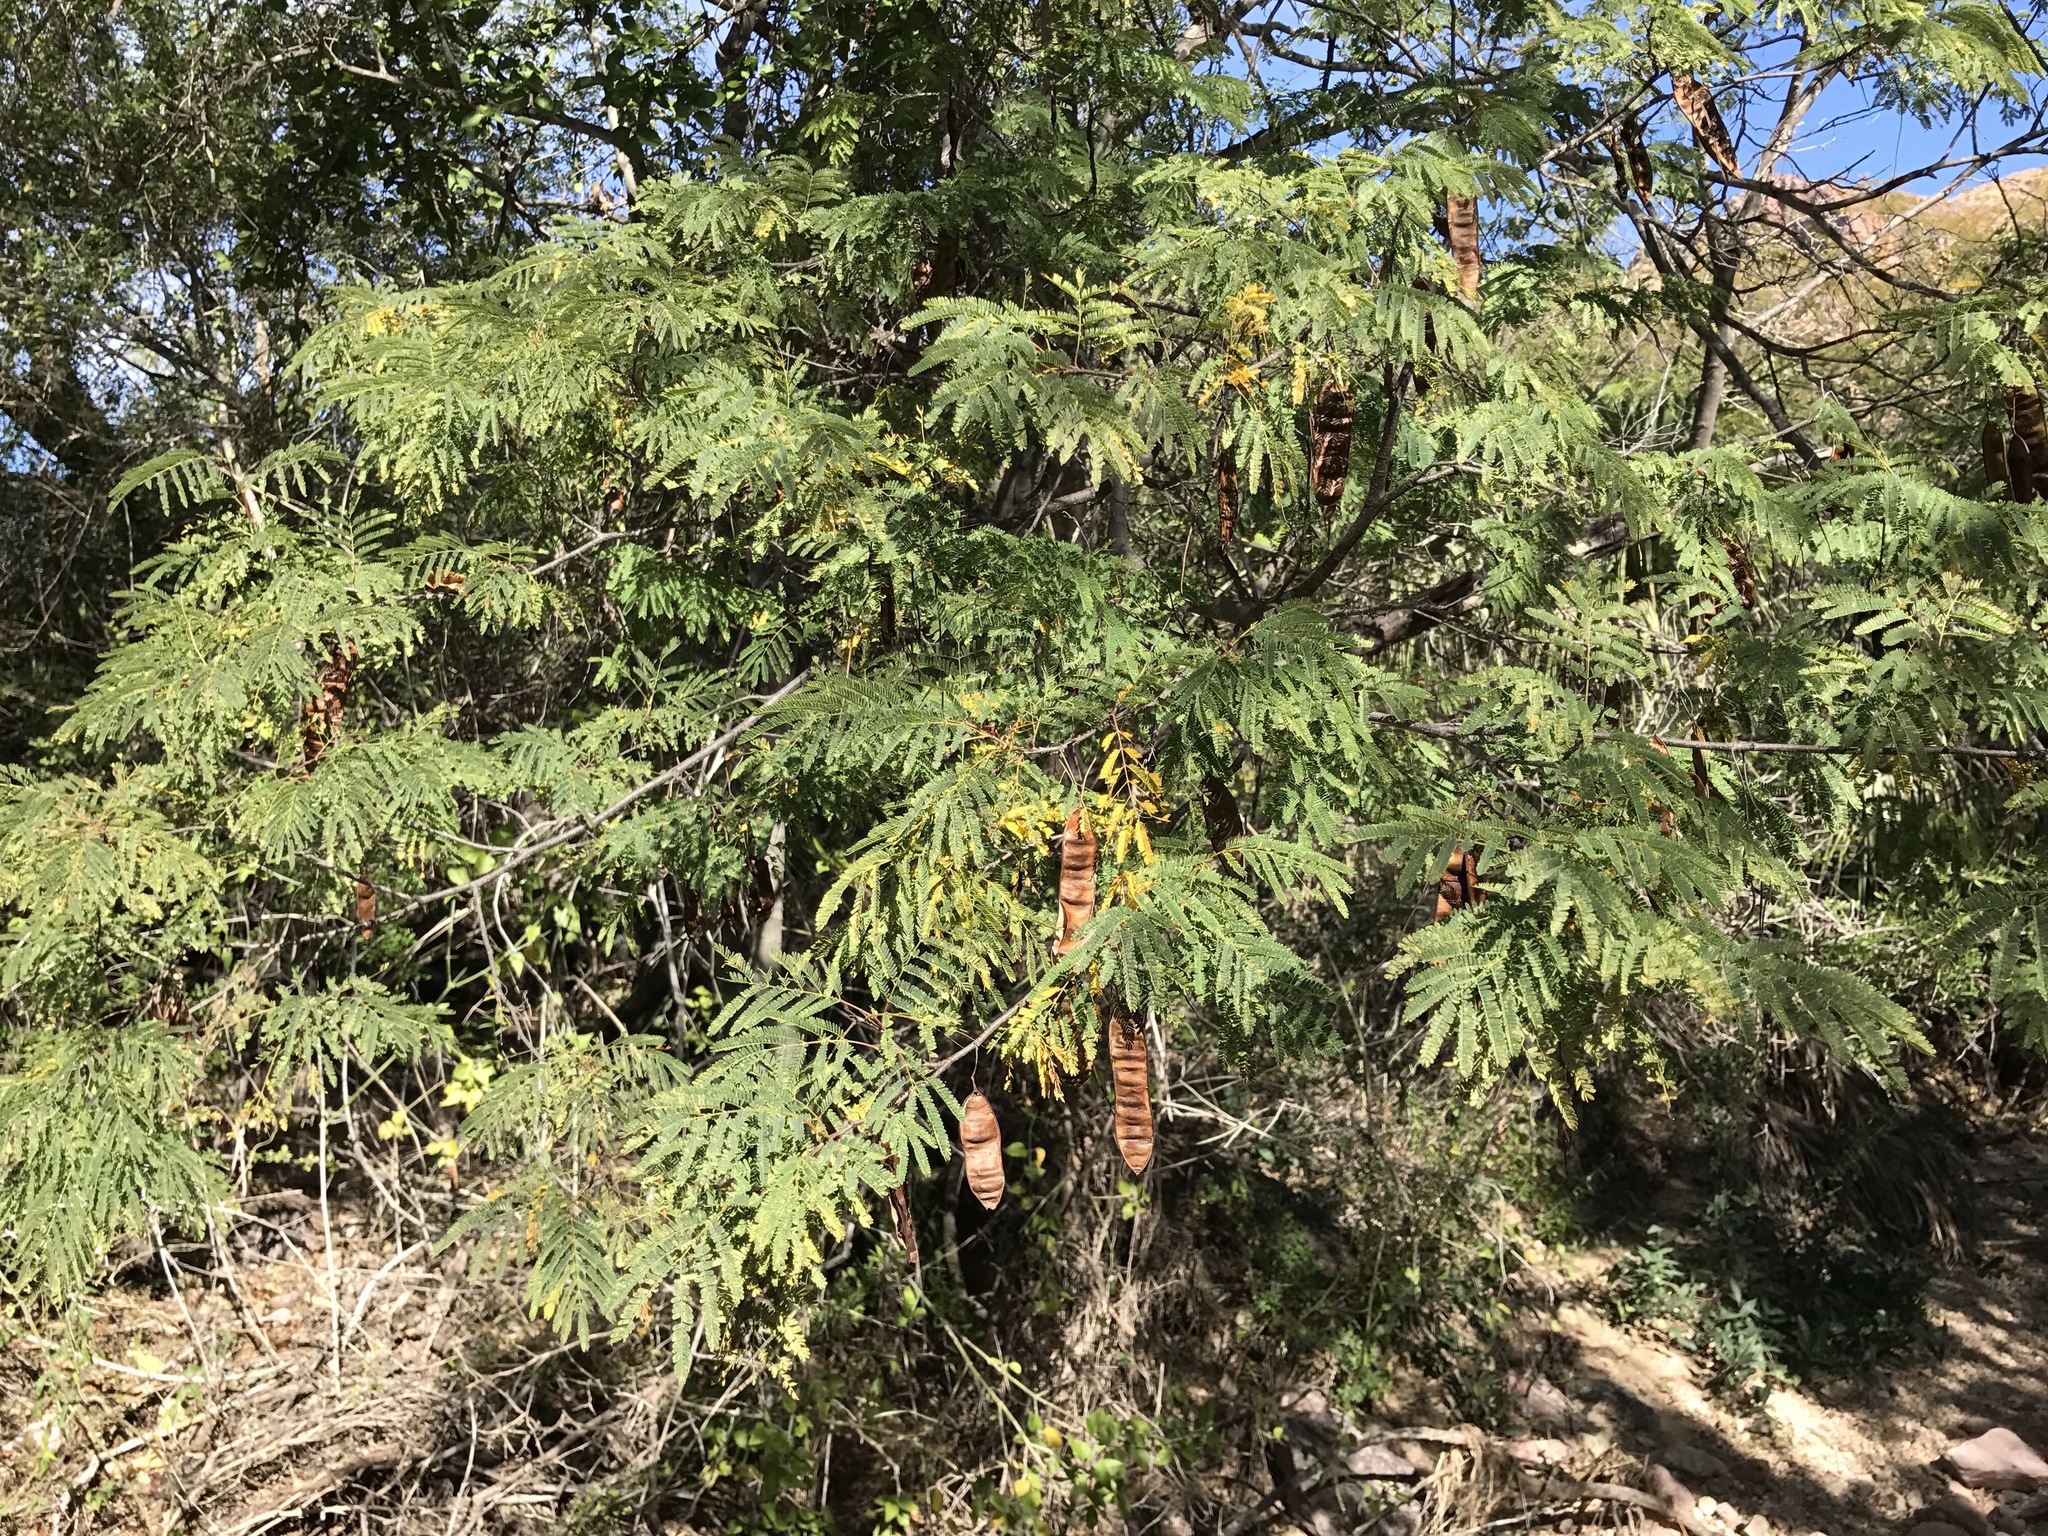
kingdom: Plantae
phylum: Tracheophyta
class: Magnoliopsida
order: Fabales
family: Fabaceae
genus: Lysiloma
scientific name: Lysiloma divaricatum
